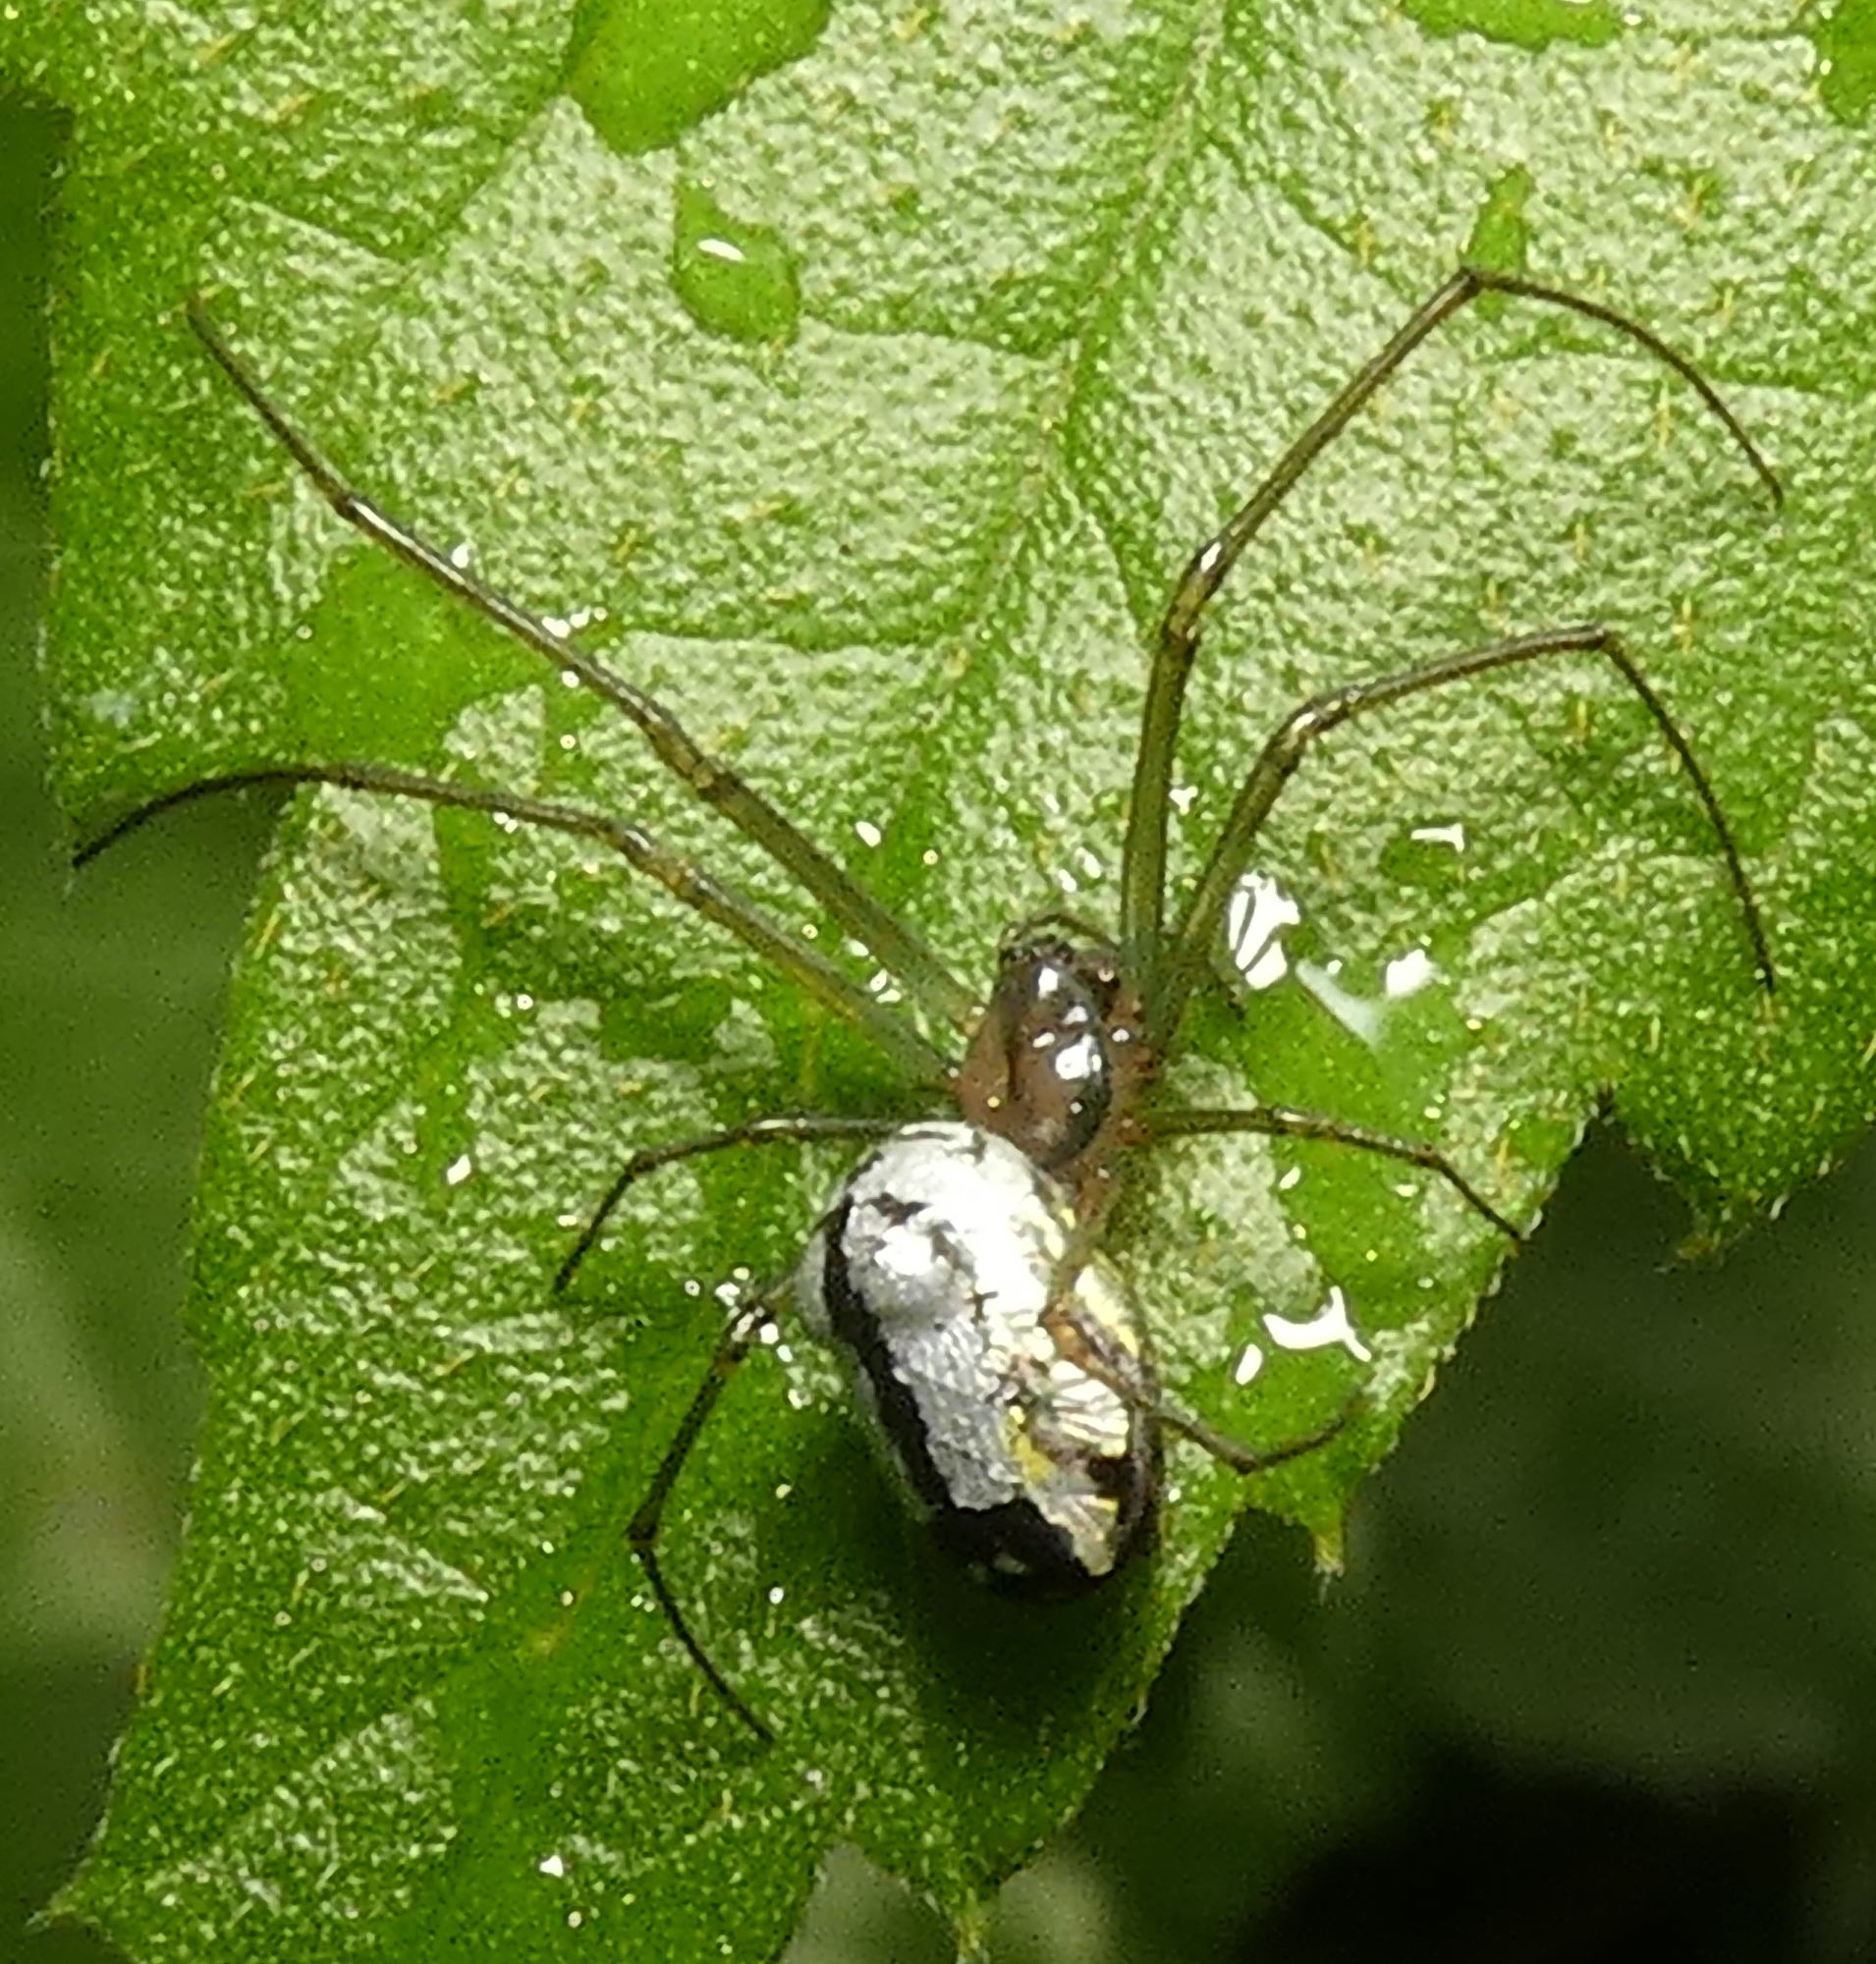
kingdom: Animalia
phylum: Arthropoda
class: Arachnida
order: Araneae
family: Tetragnathidae
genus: Leucauge
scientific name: Leucauge volupis
